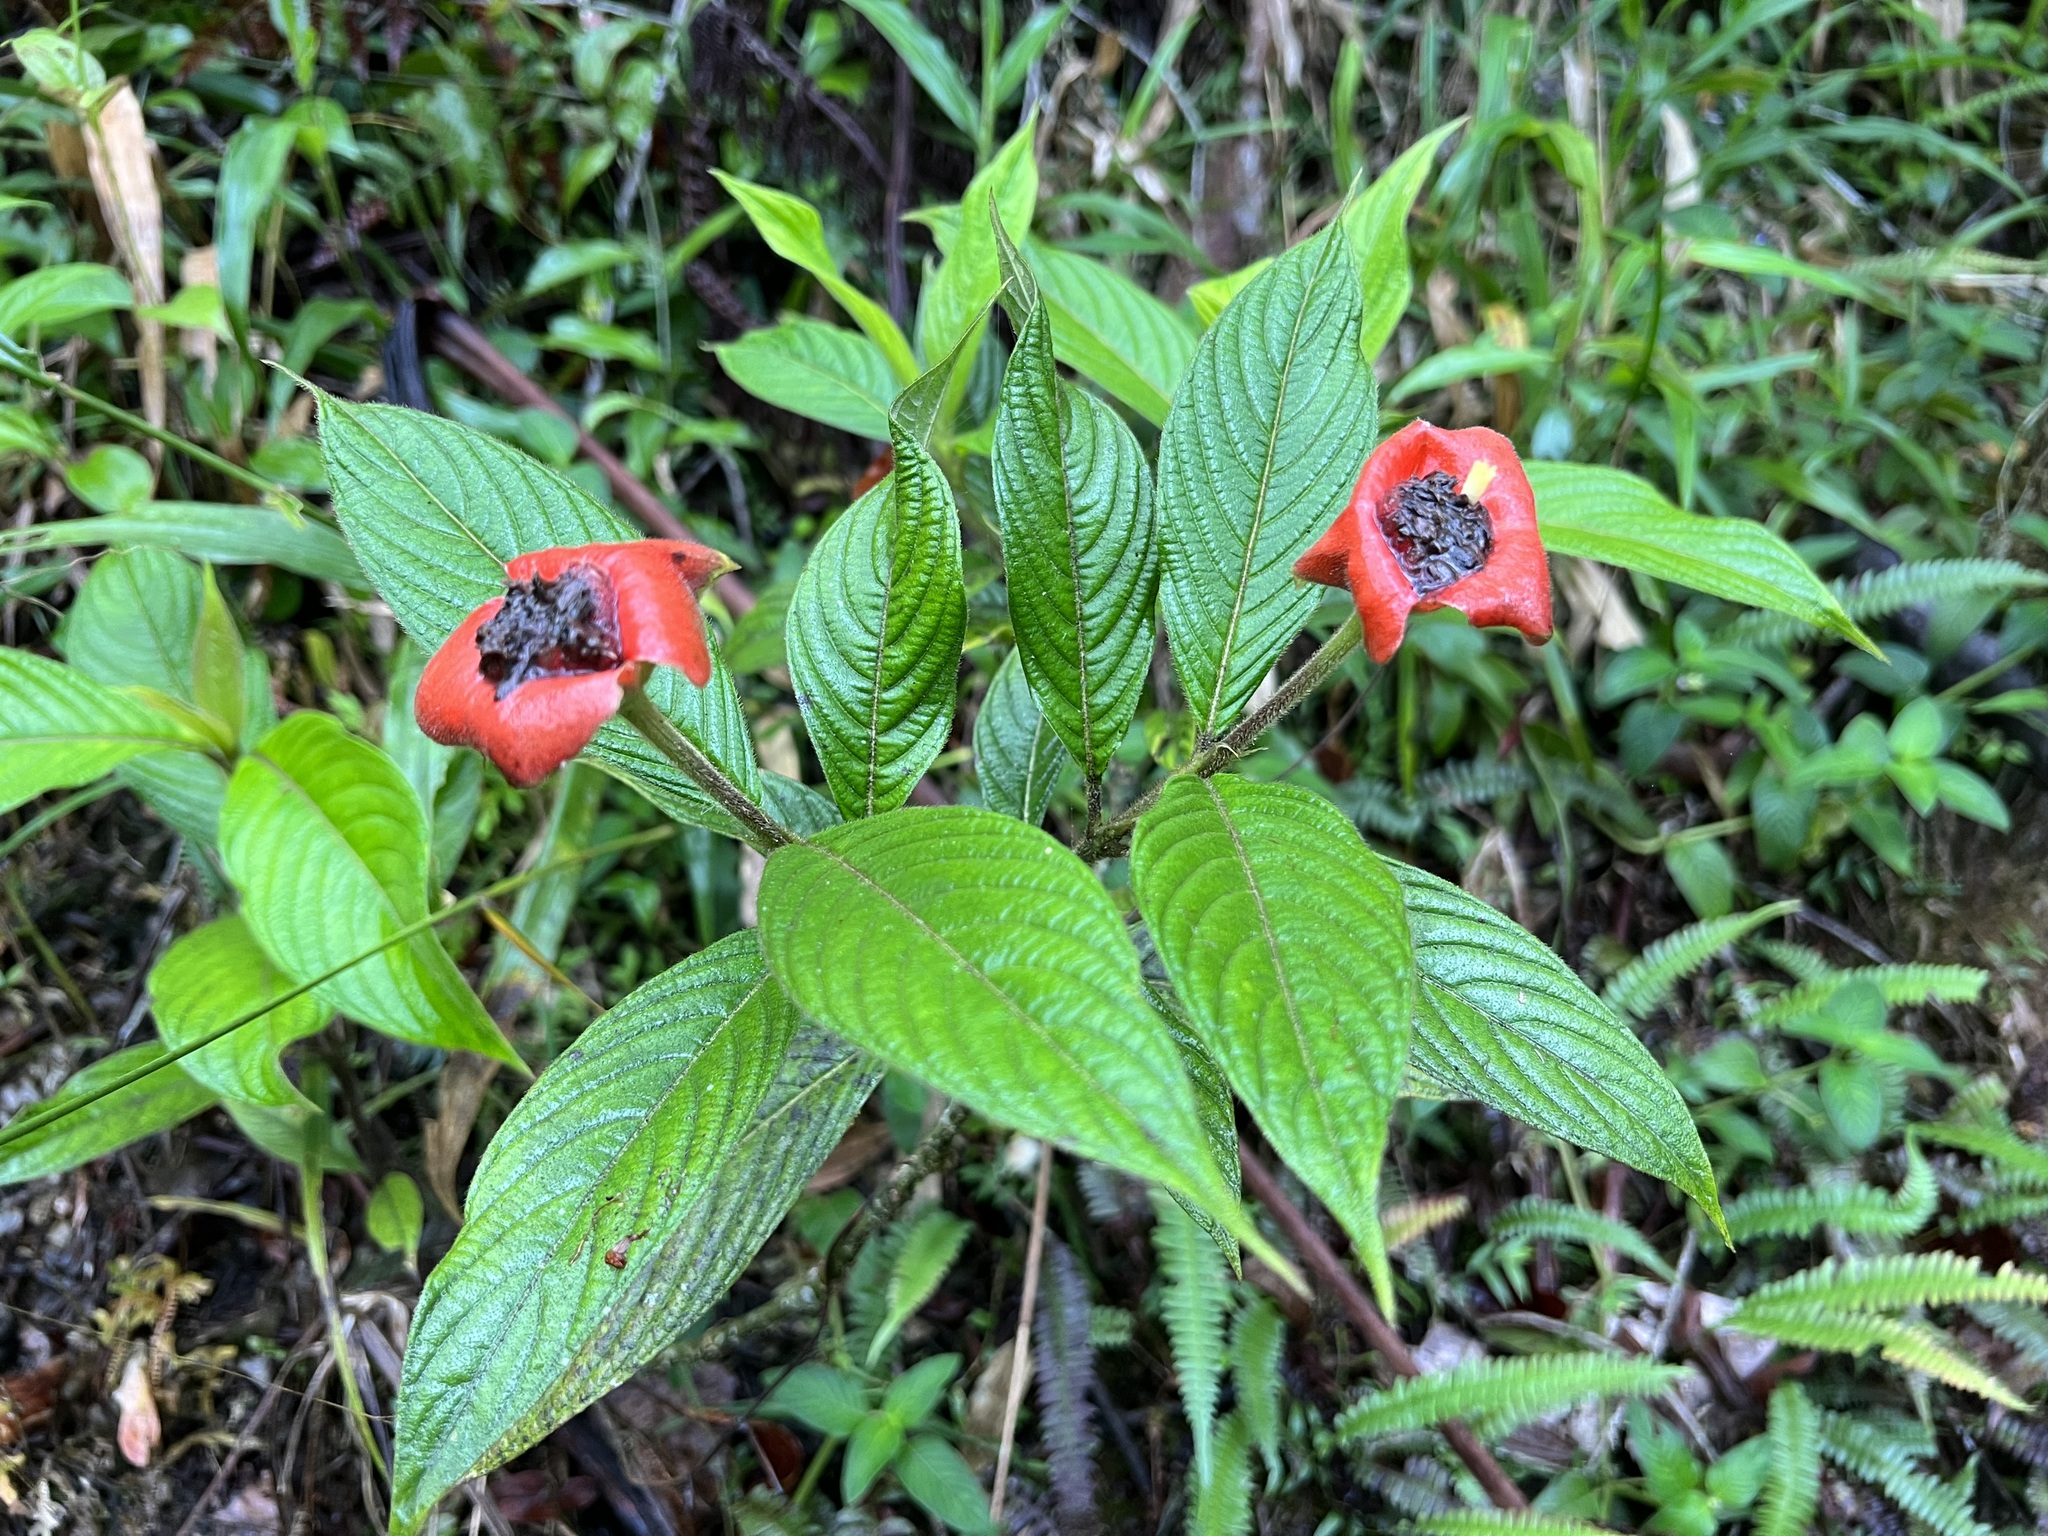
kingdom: Plantae
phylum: Tracheophyta
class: Magnoliopsida
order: Gentianales
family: Rubiaceae
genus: Palicourea
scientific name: Palicourea tomentosa
